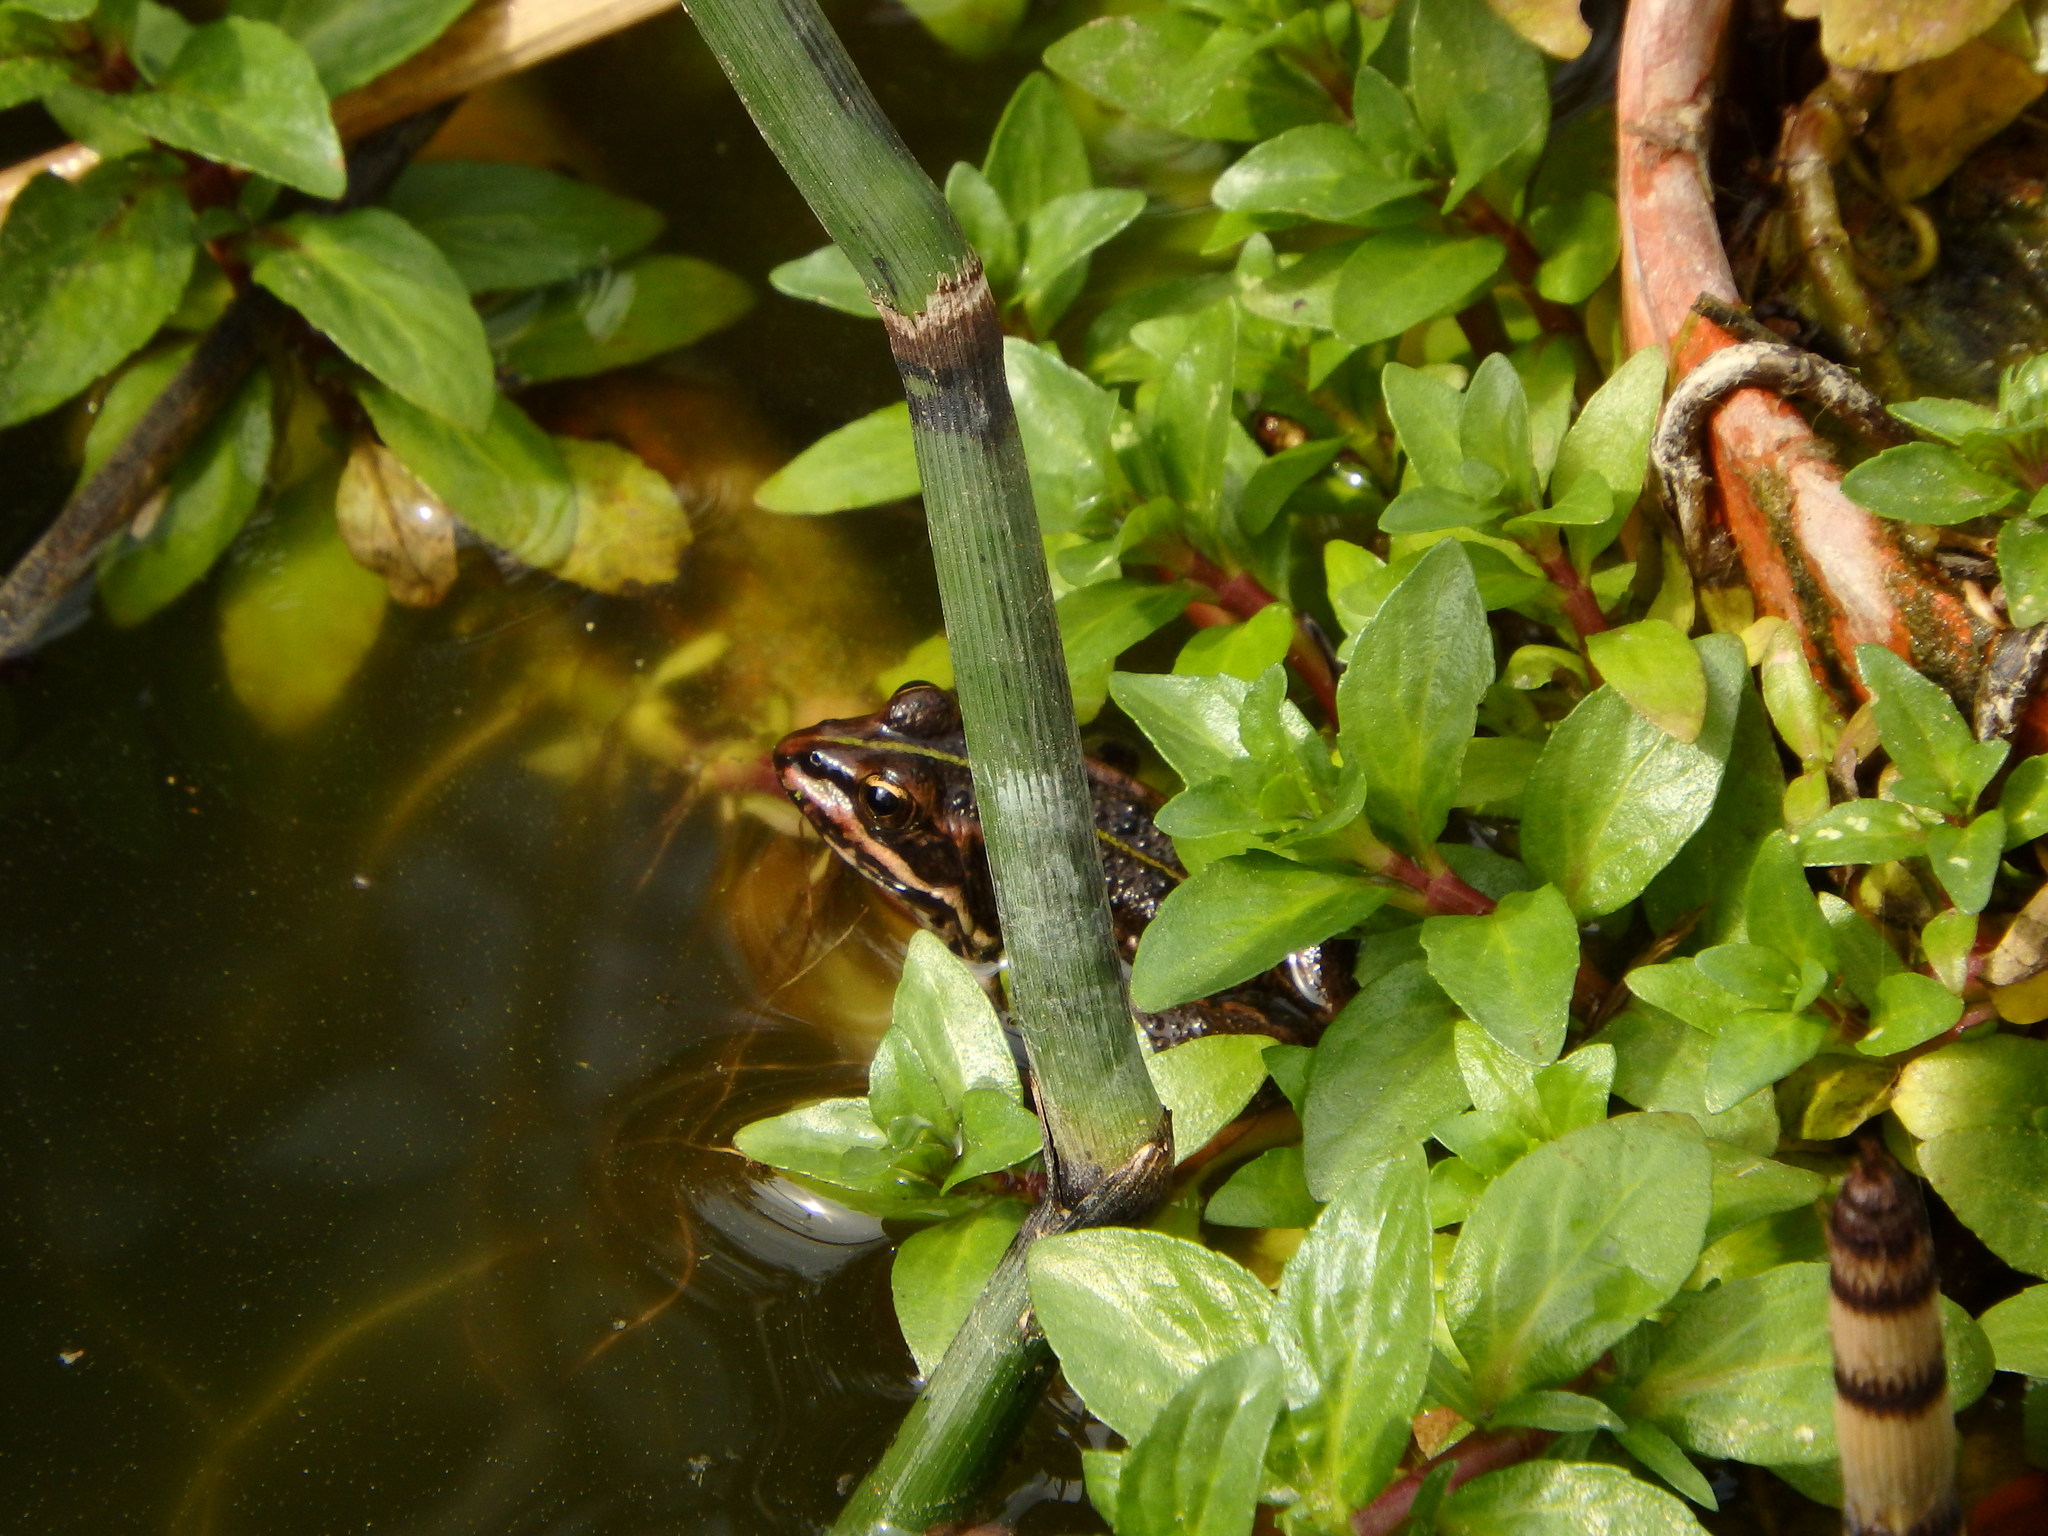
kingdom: Animalia
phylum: Chordata
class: Amphibia
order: Anura
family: Ranidae
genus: Pelophylax
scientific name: Pelophylax perezi
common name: Perez's frog
